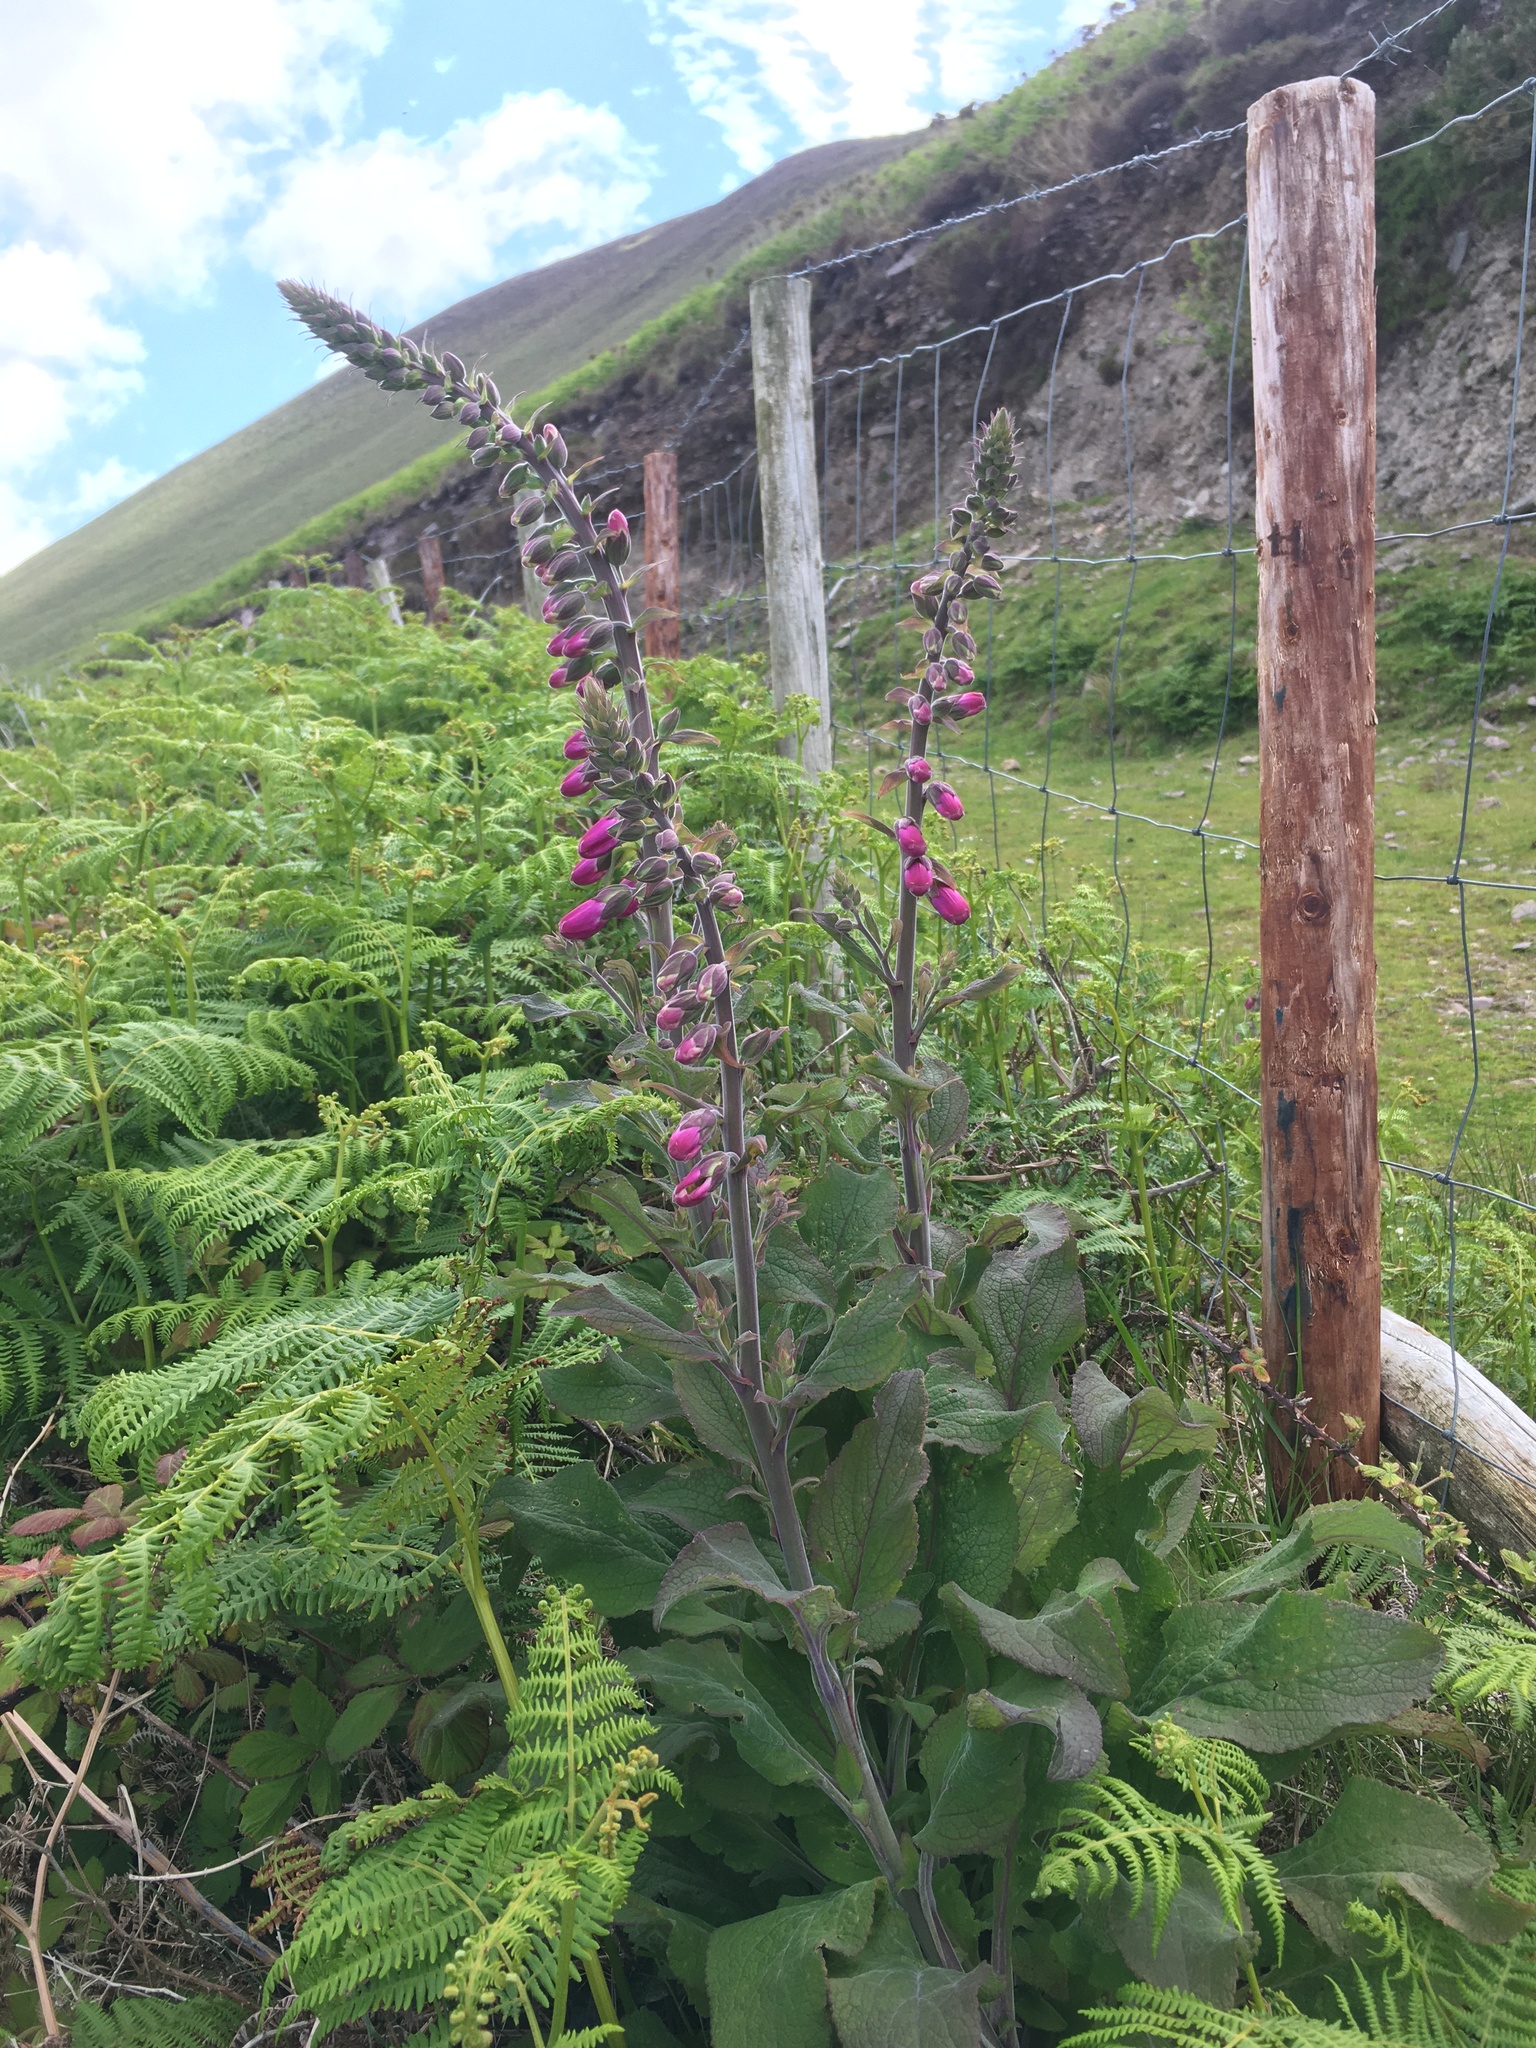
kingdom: Plantae
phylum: Tracheophyta
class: Magnoliopsida
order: Lamiales
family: Plantaginaceae
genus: Digitalis
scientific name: Digitalis purpurea
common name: Foxglove
